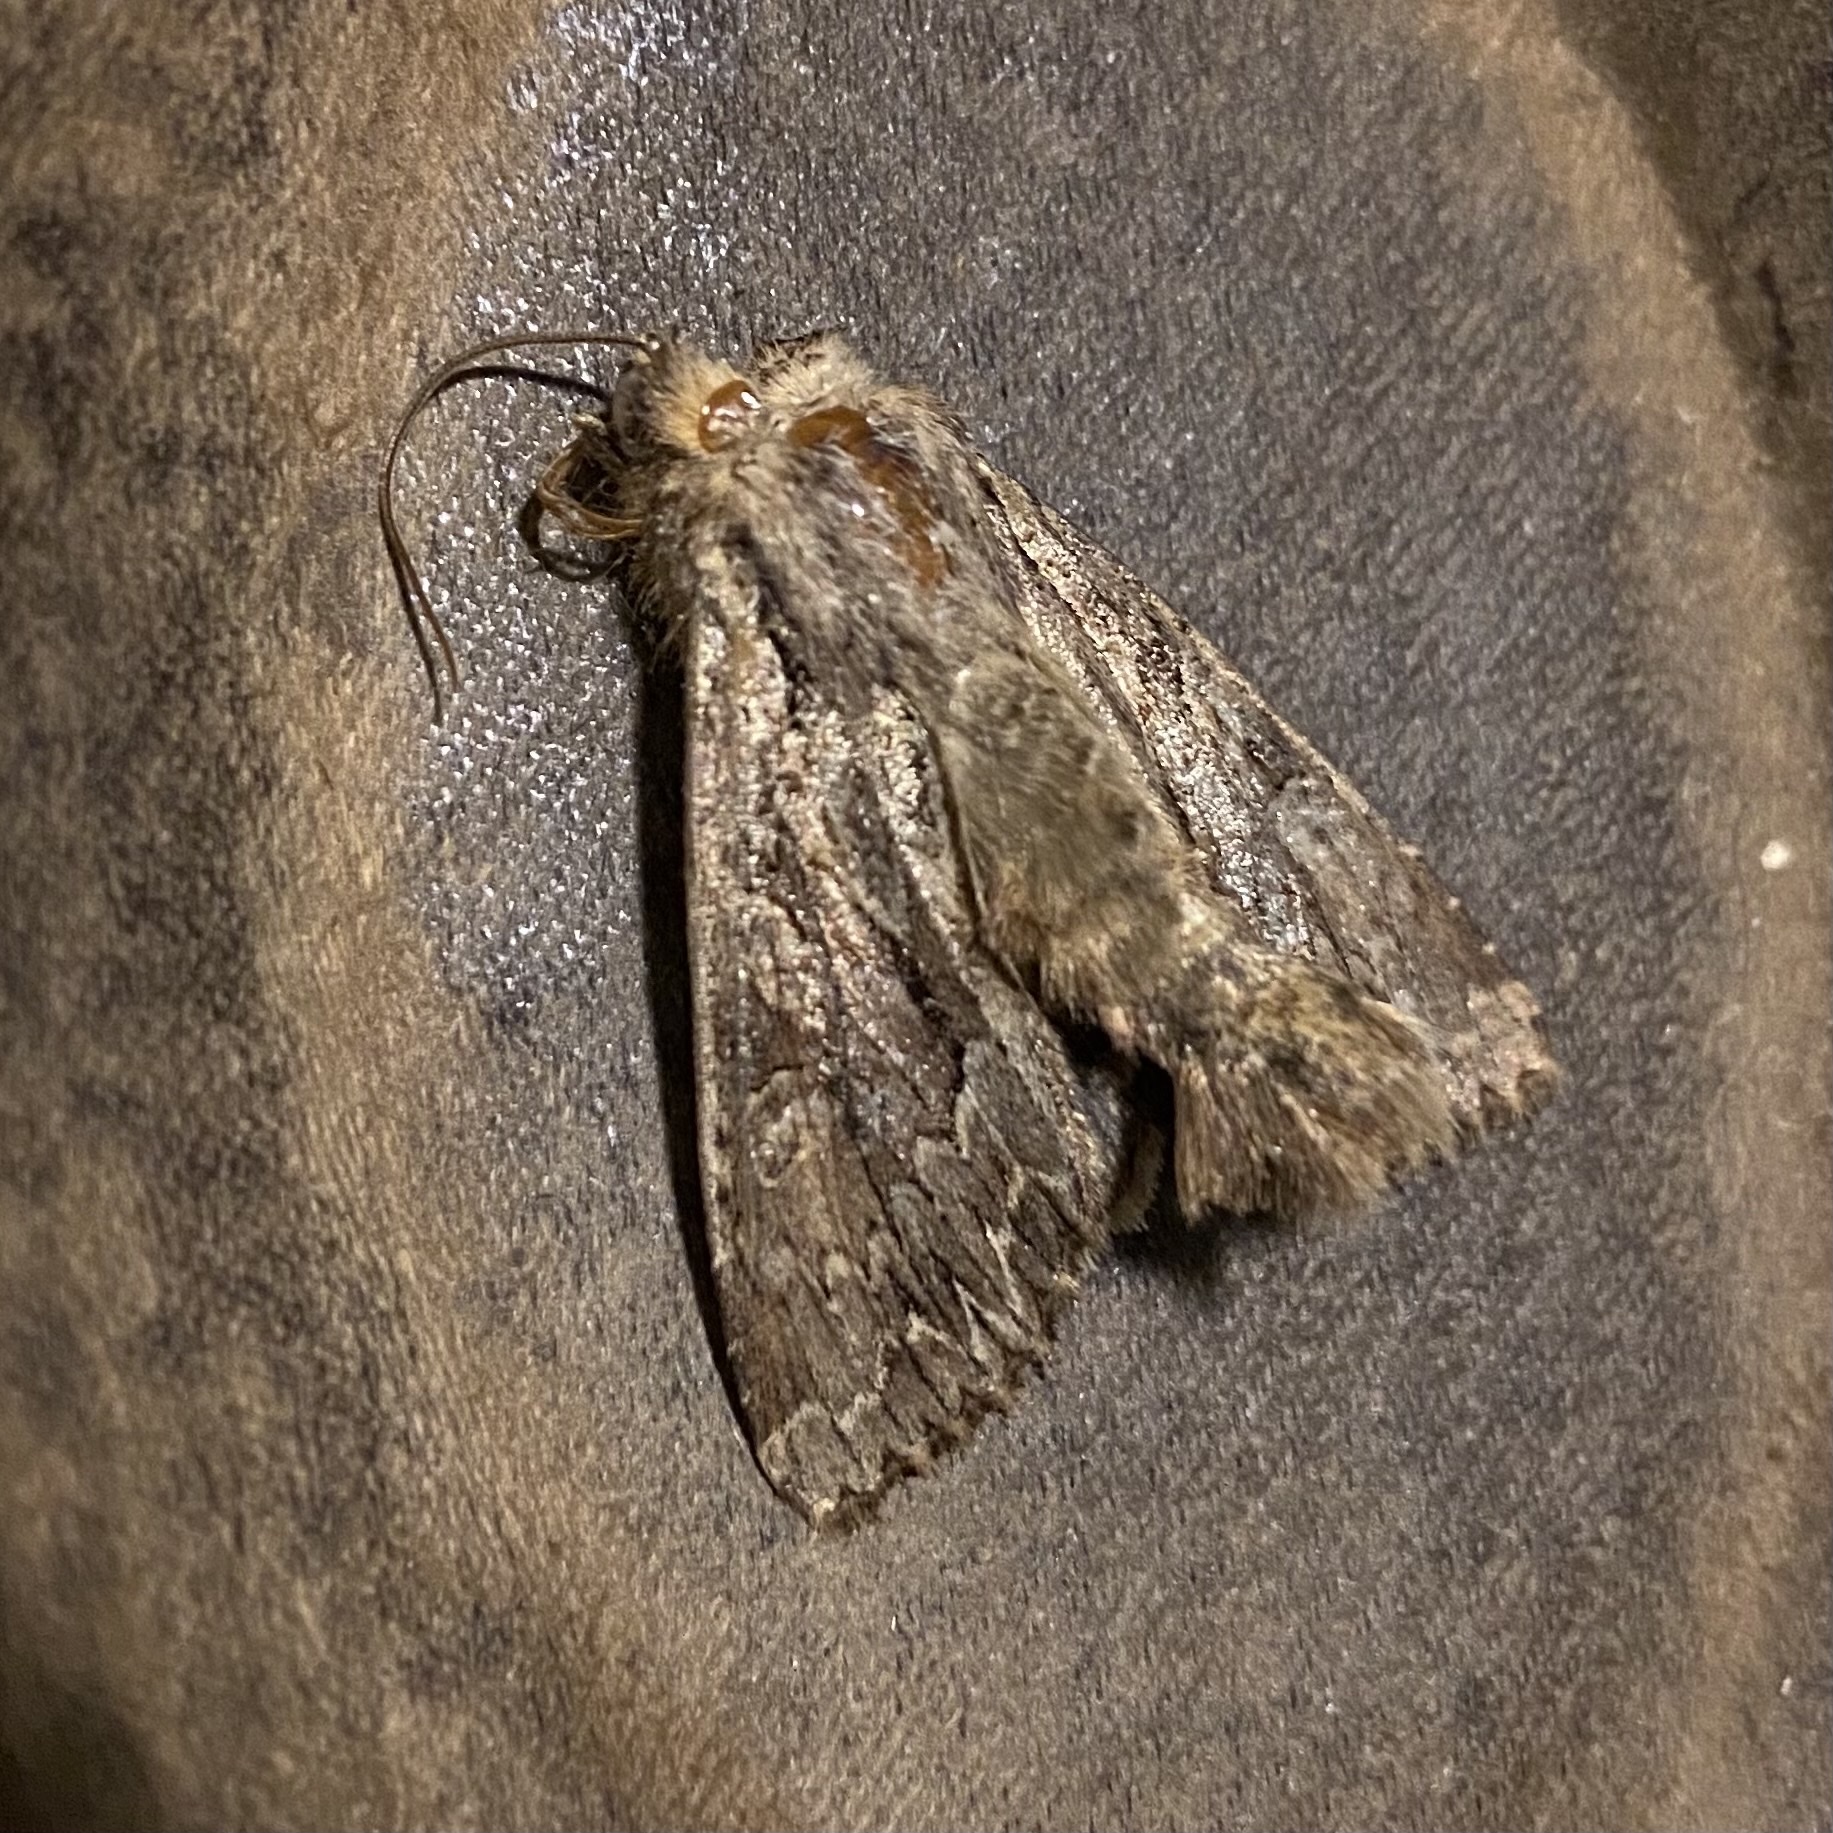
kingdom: Animalia
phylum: Arthropoda
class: Insecta
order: Lepidoptera
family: Noctuidae
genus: Apamea
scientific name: Apamea monoglypha
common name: Dark arches
